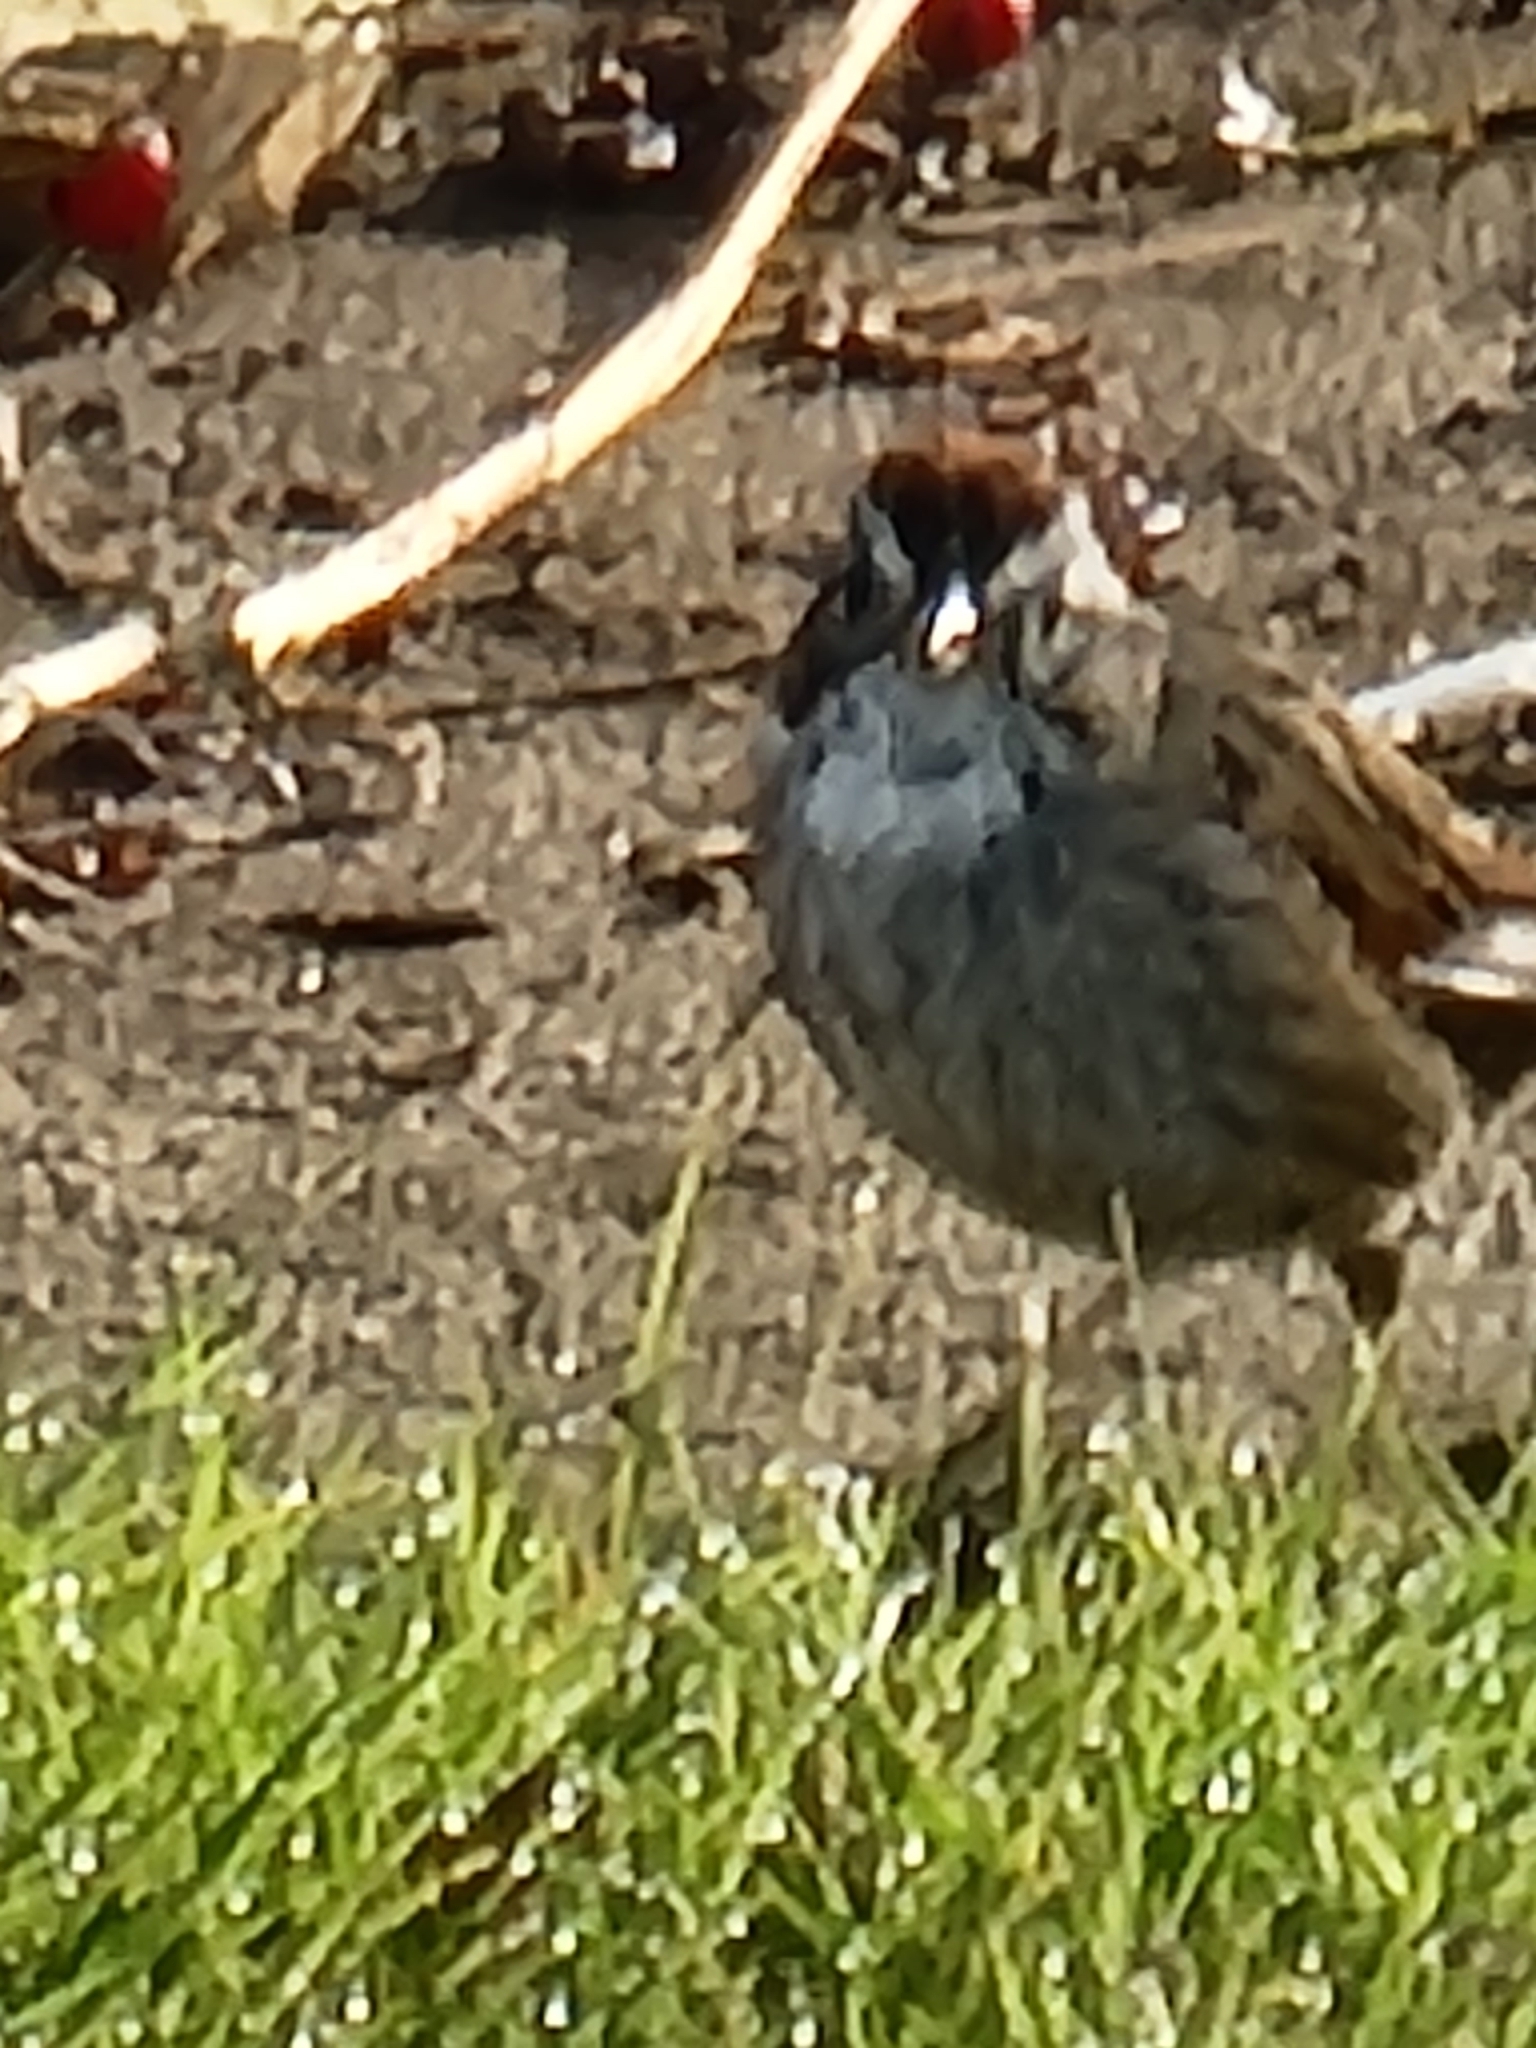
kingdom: Animalia
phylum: Chordata
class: Aves
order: Passeriformes
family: Passerellidae
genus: Melospiza
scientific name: Melospiza georgiana
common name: Swamp sparrow
